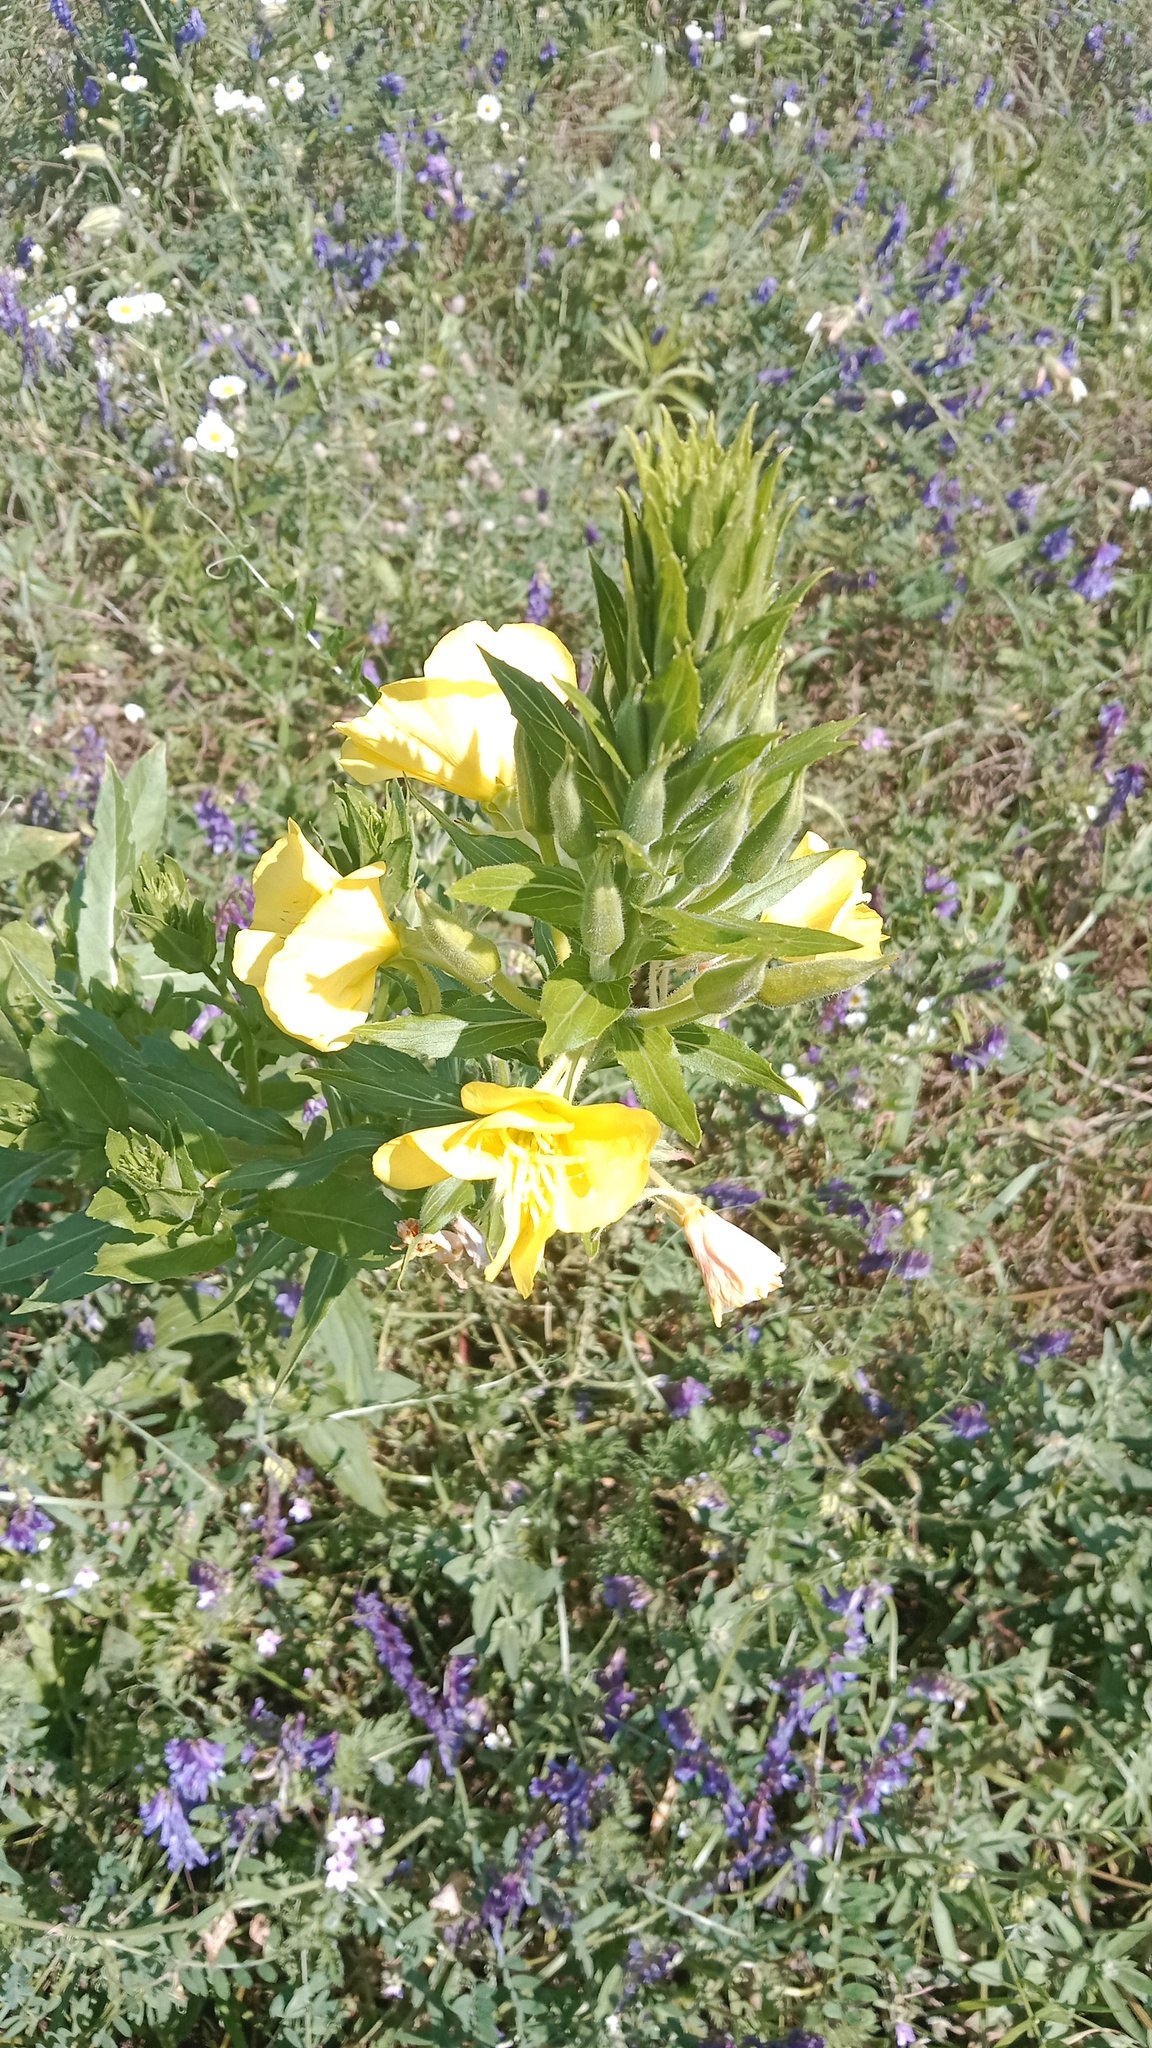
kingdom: Plantae
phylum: Tracheophyta
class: Magnoliopsida
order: Myrtales
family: Onagraceae
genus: Oenothera
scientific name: Oenothera biennis
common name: Common evening-primrose
